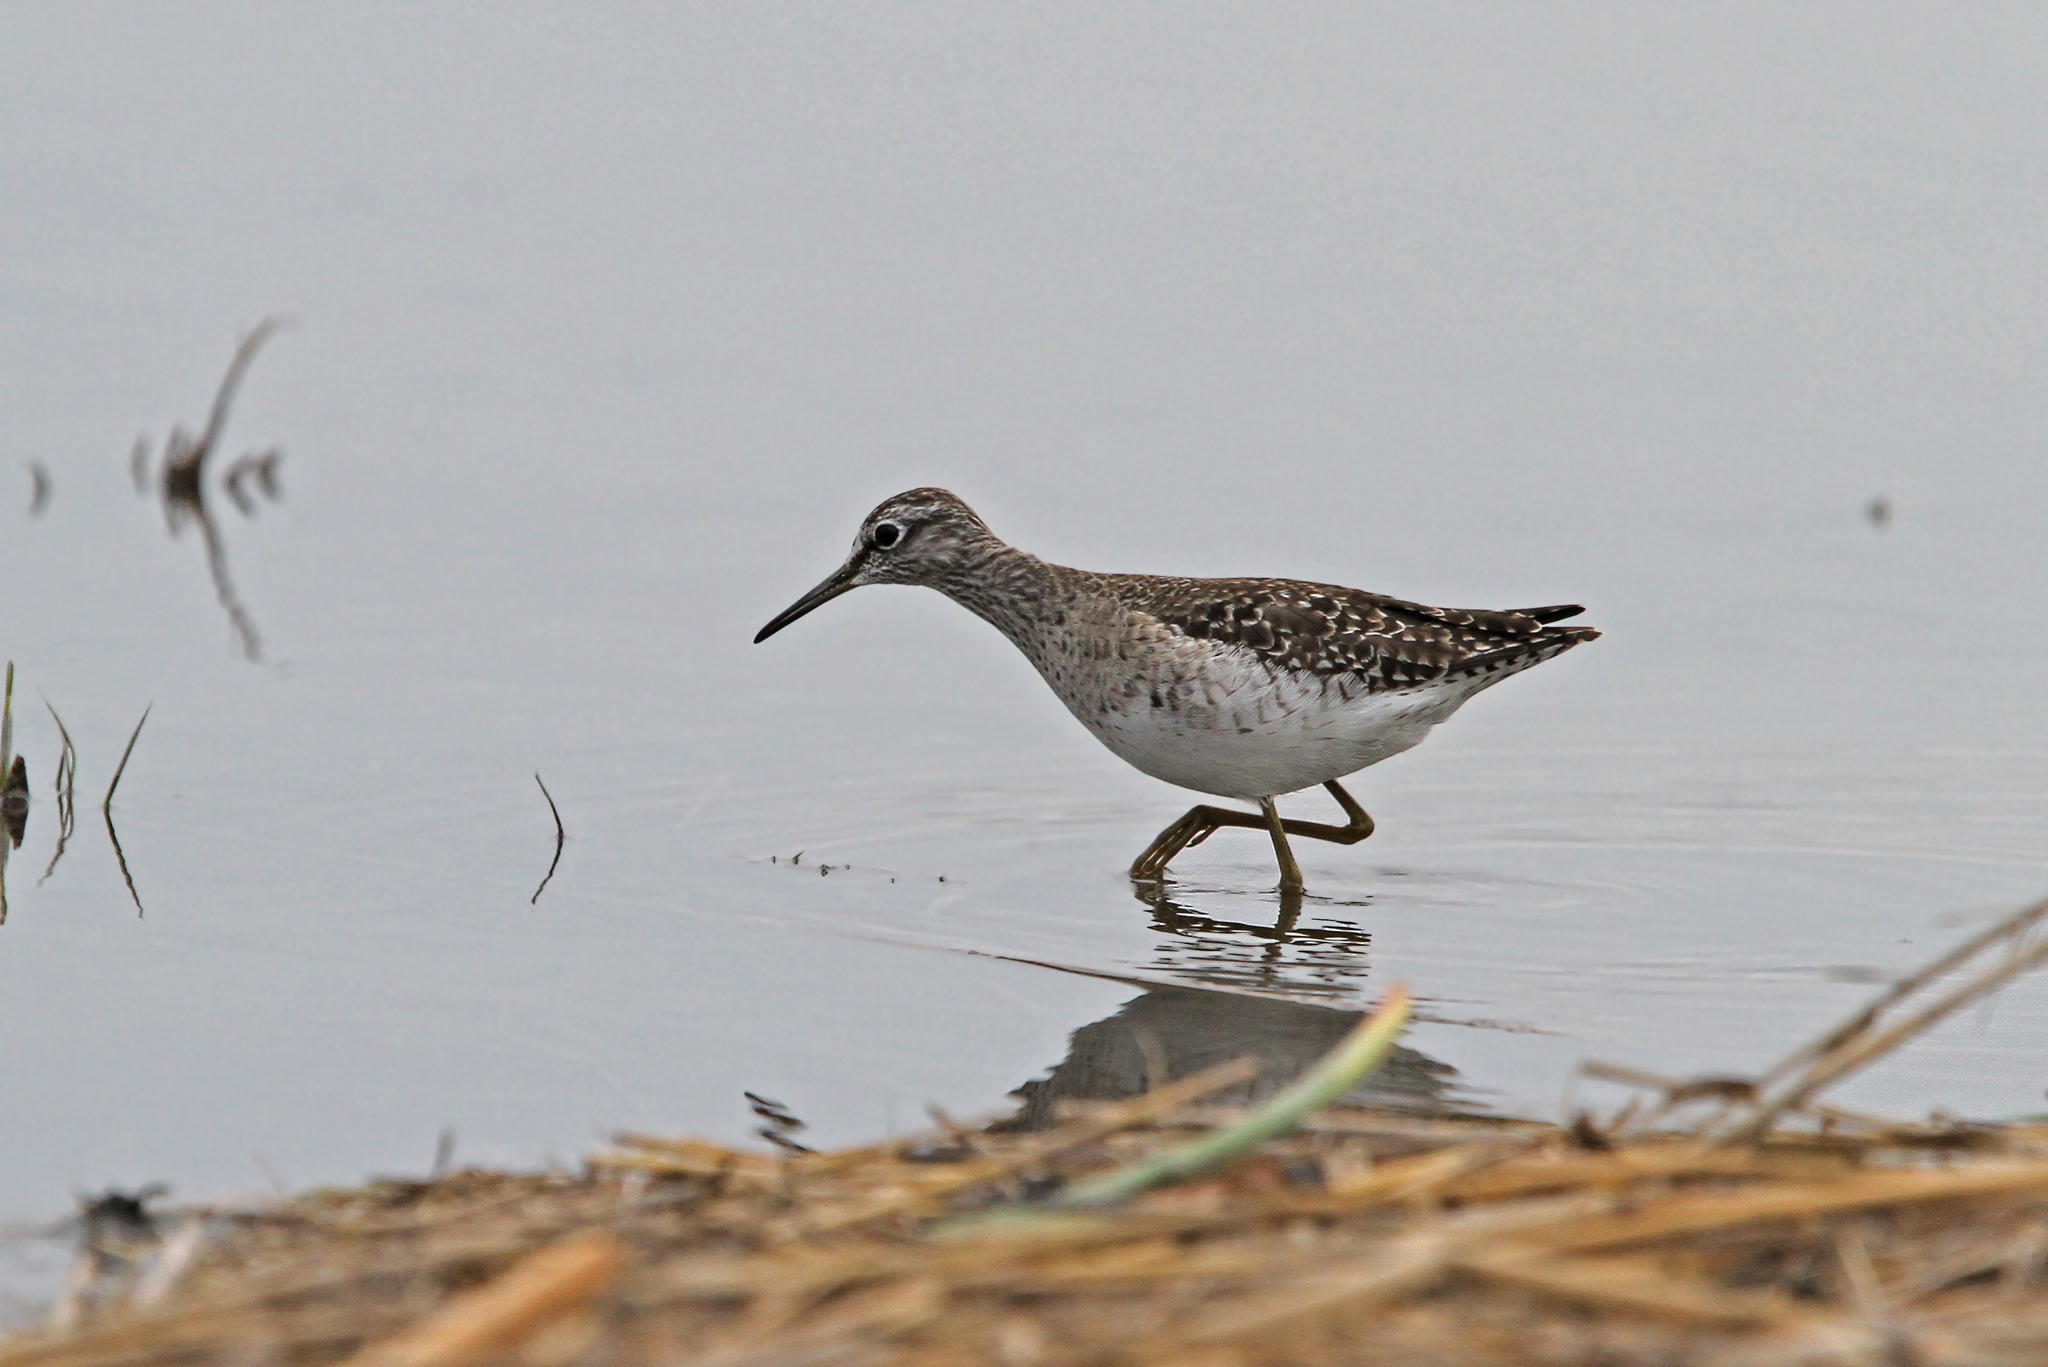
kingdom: Animalia
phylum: Chordata
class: Aves
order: Charadriiformes
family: Scolopacidae
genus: Tringa
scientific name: Tringa glareola
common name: Wood sandpiper
